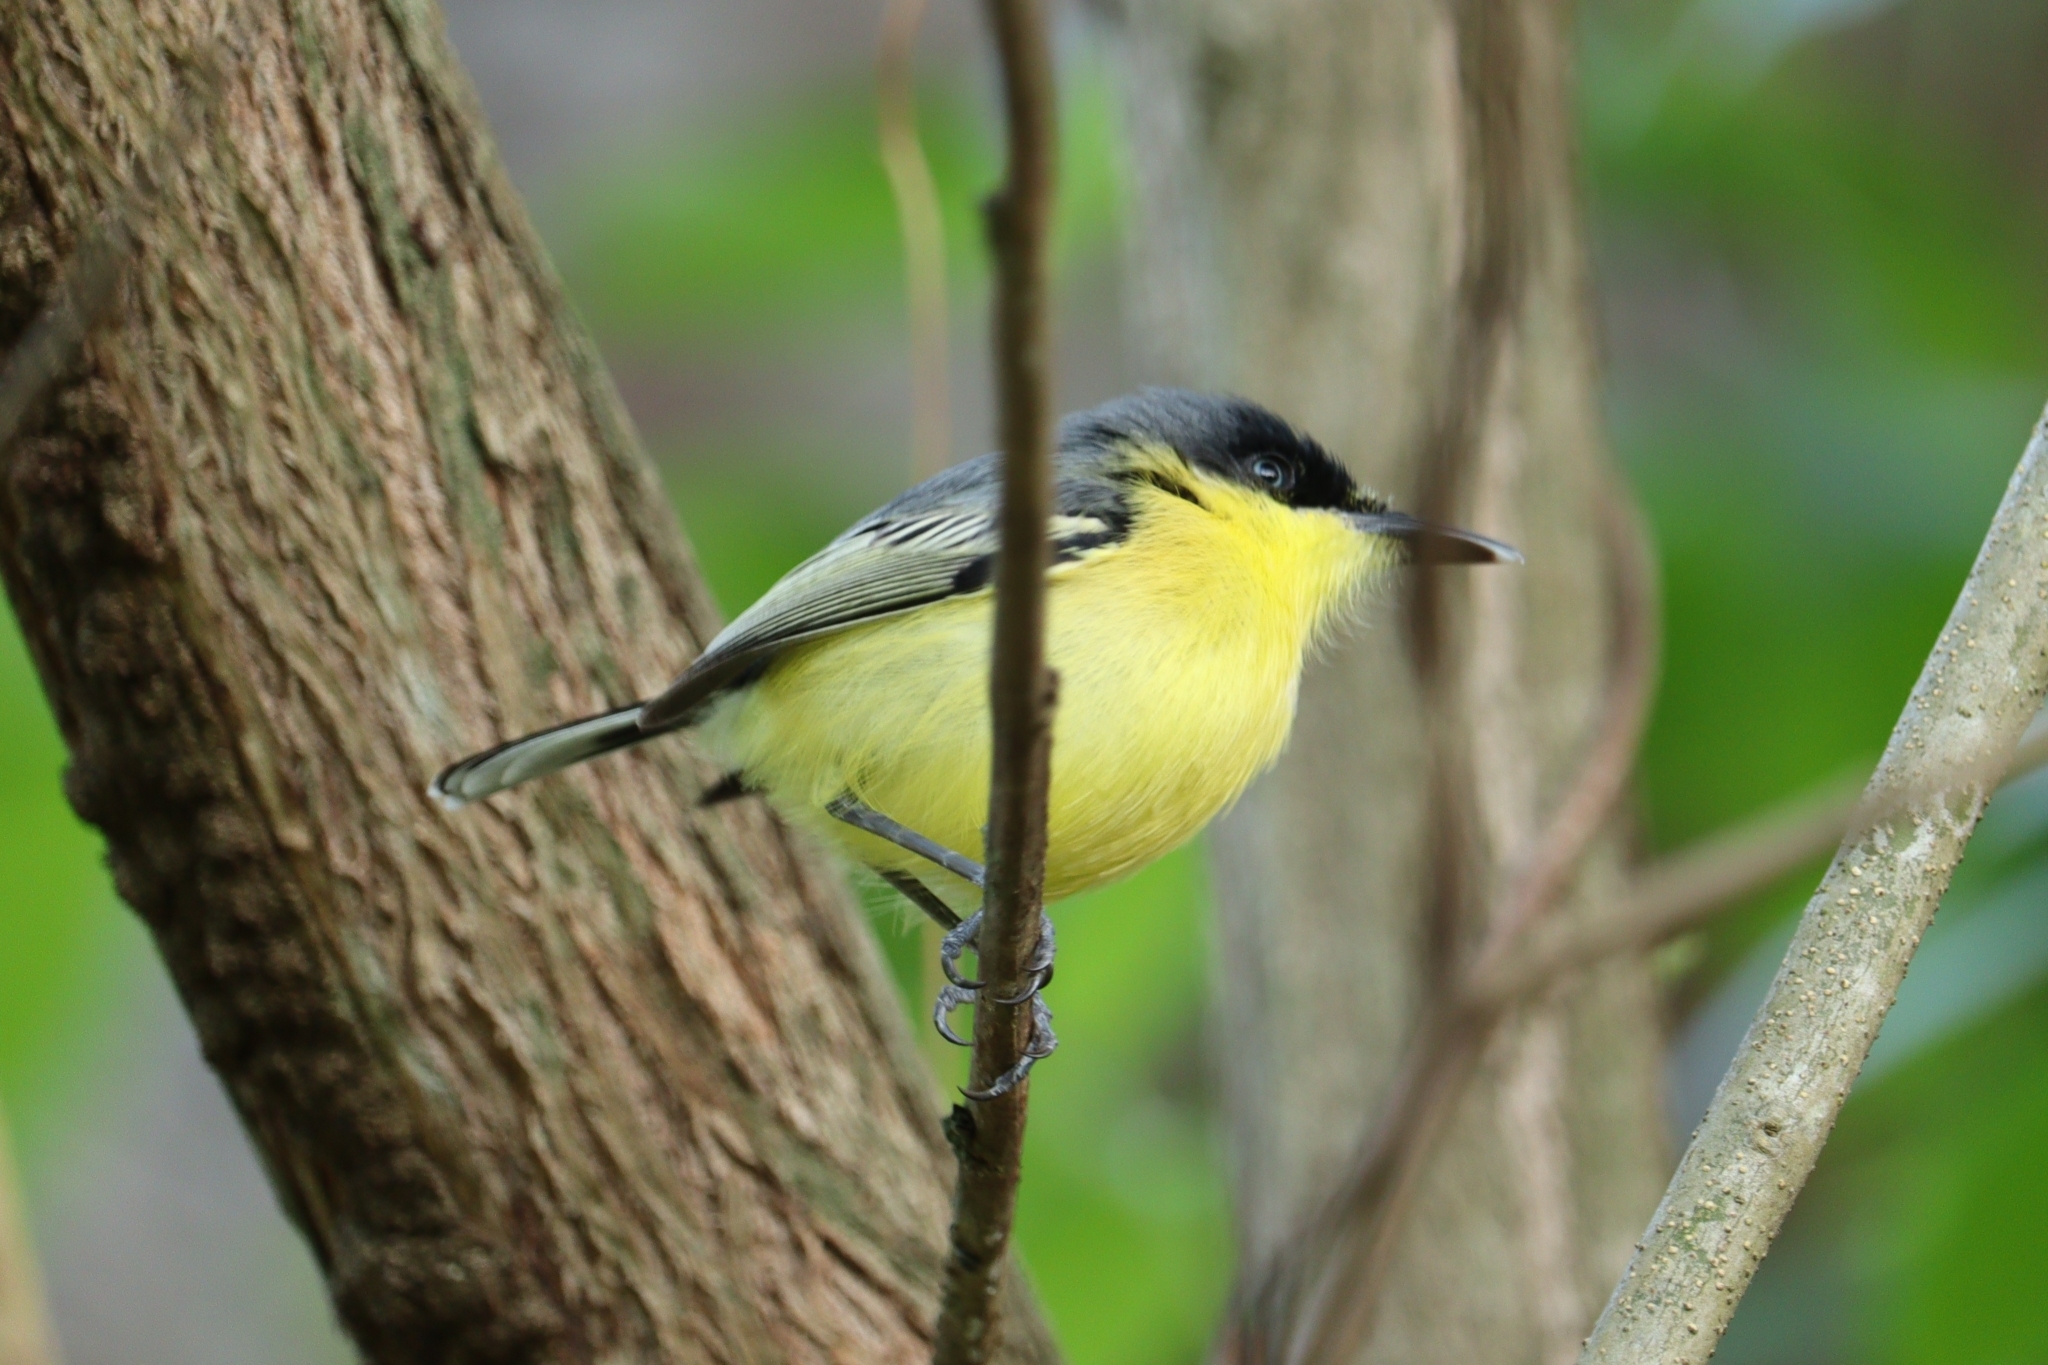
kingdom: Animalia
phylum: Chordata
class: Aves
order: Passeriformes
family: Tyrannidae
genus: Todirostrum
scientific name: Todirostrum cinereum
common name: Common tody-flycatcher
